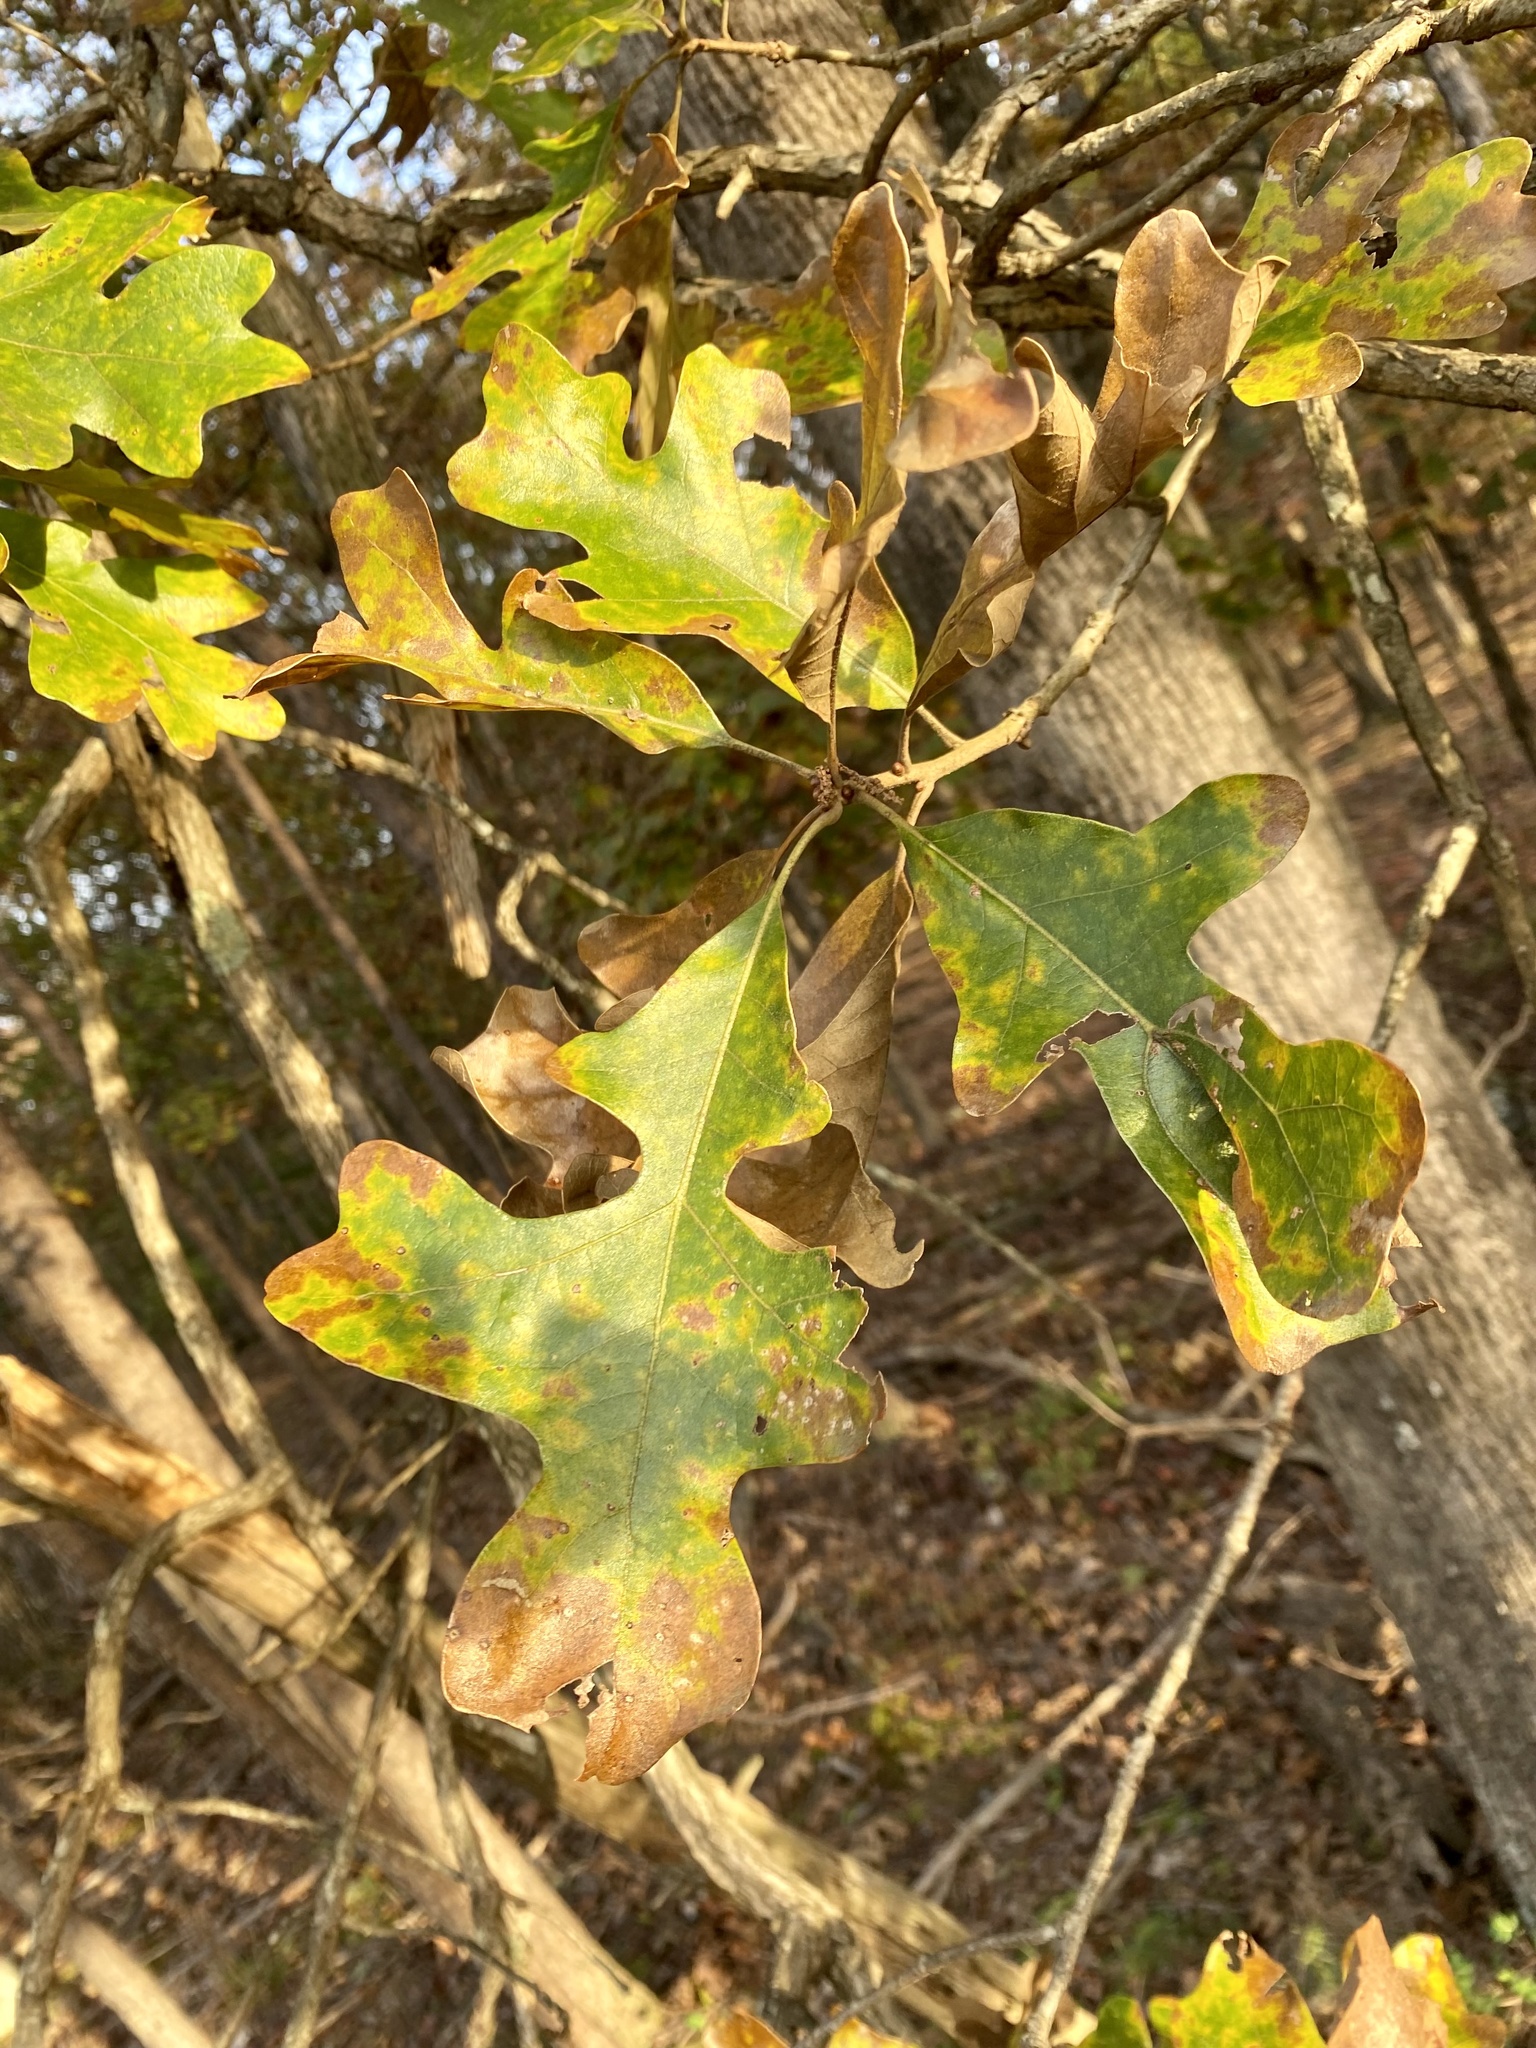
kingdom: Plantae
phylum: Tracheophyta
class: Magnoliopsida
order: Fagales
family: Fagaceae
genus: Quercus
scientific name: Quercus stellata
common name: Post oak
